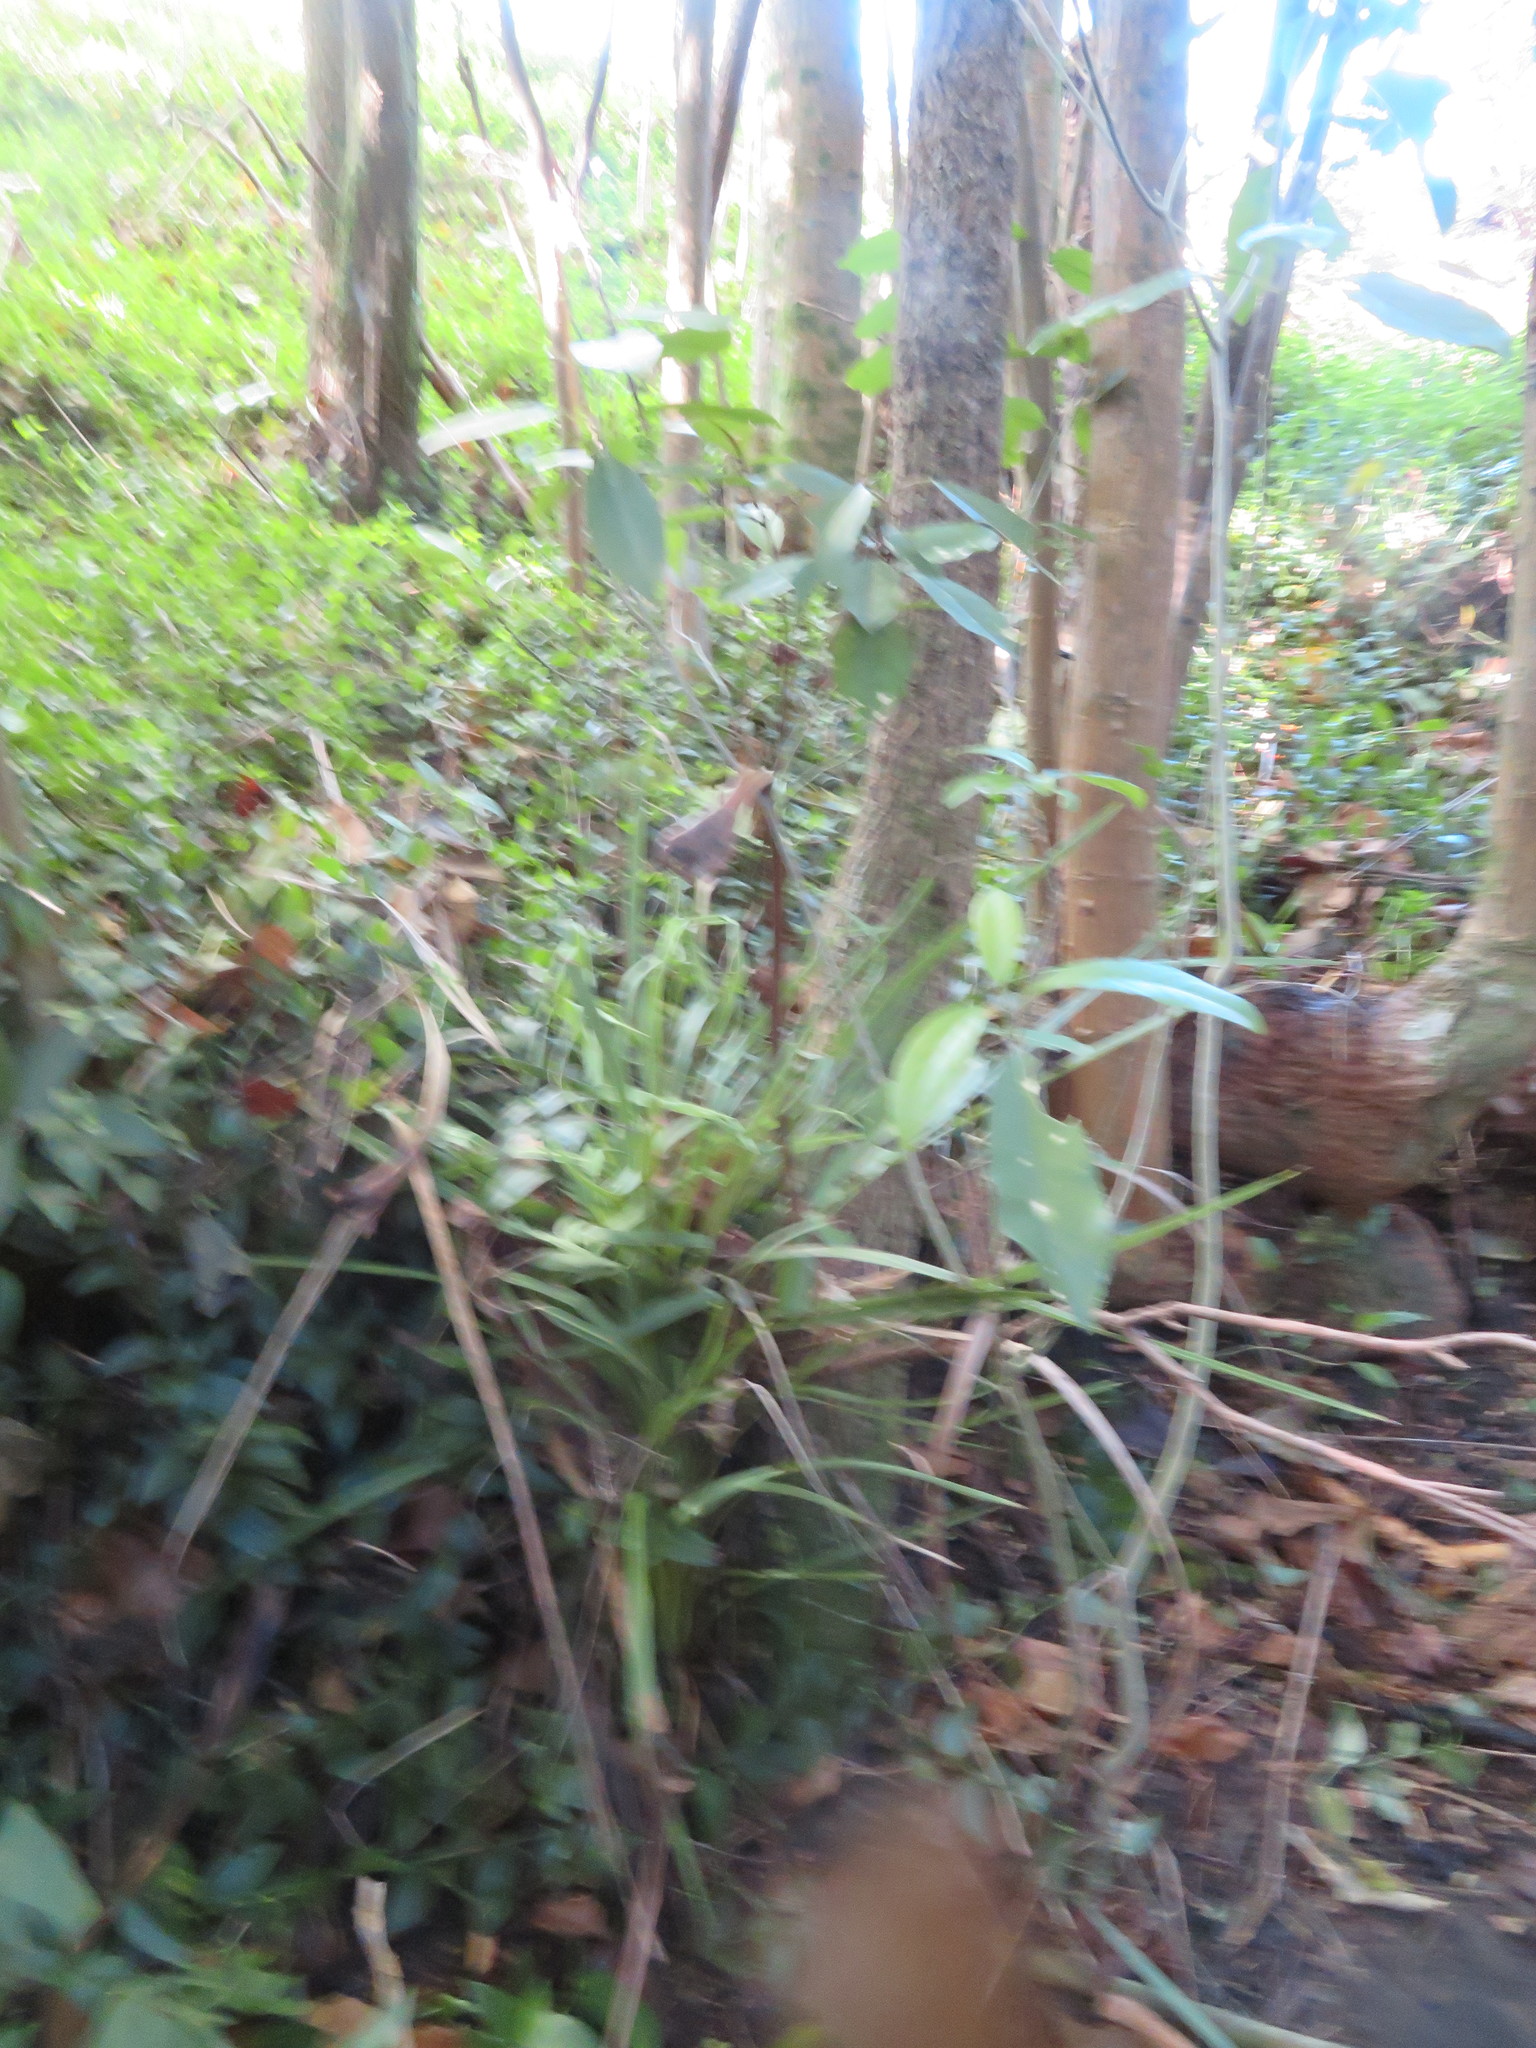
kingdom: Plantae
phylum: Tracheophyta
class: Magnoliopsida
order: Fabales
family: Fabaceae
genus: Erythrina
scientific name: Erythrina sykesii
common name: Coraltree
